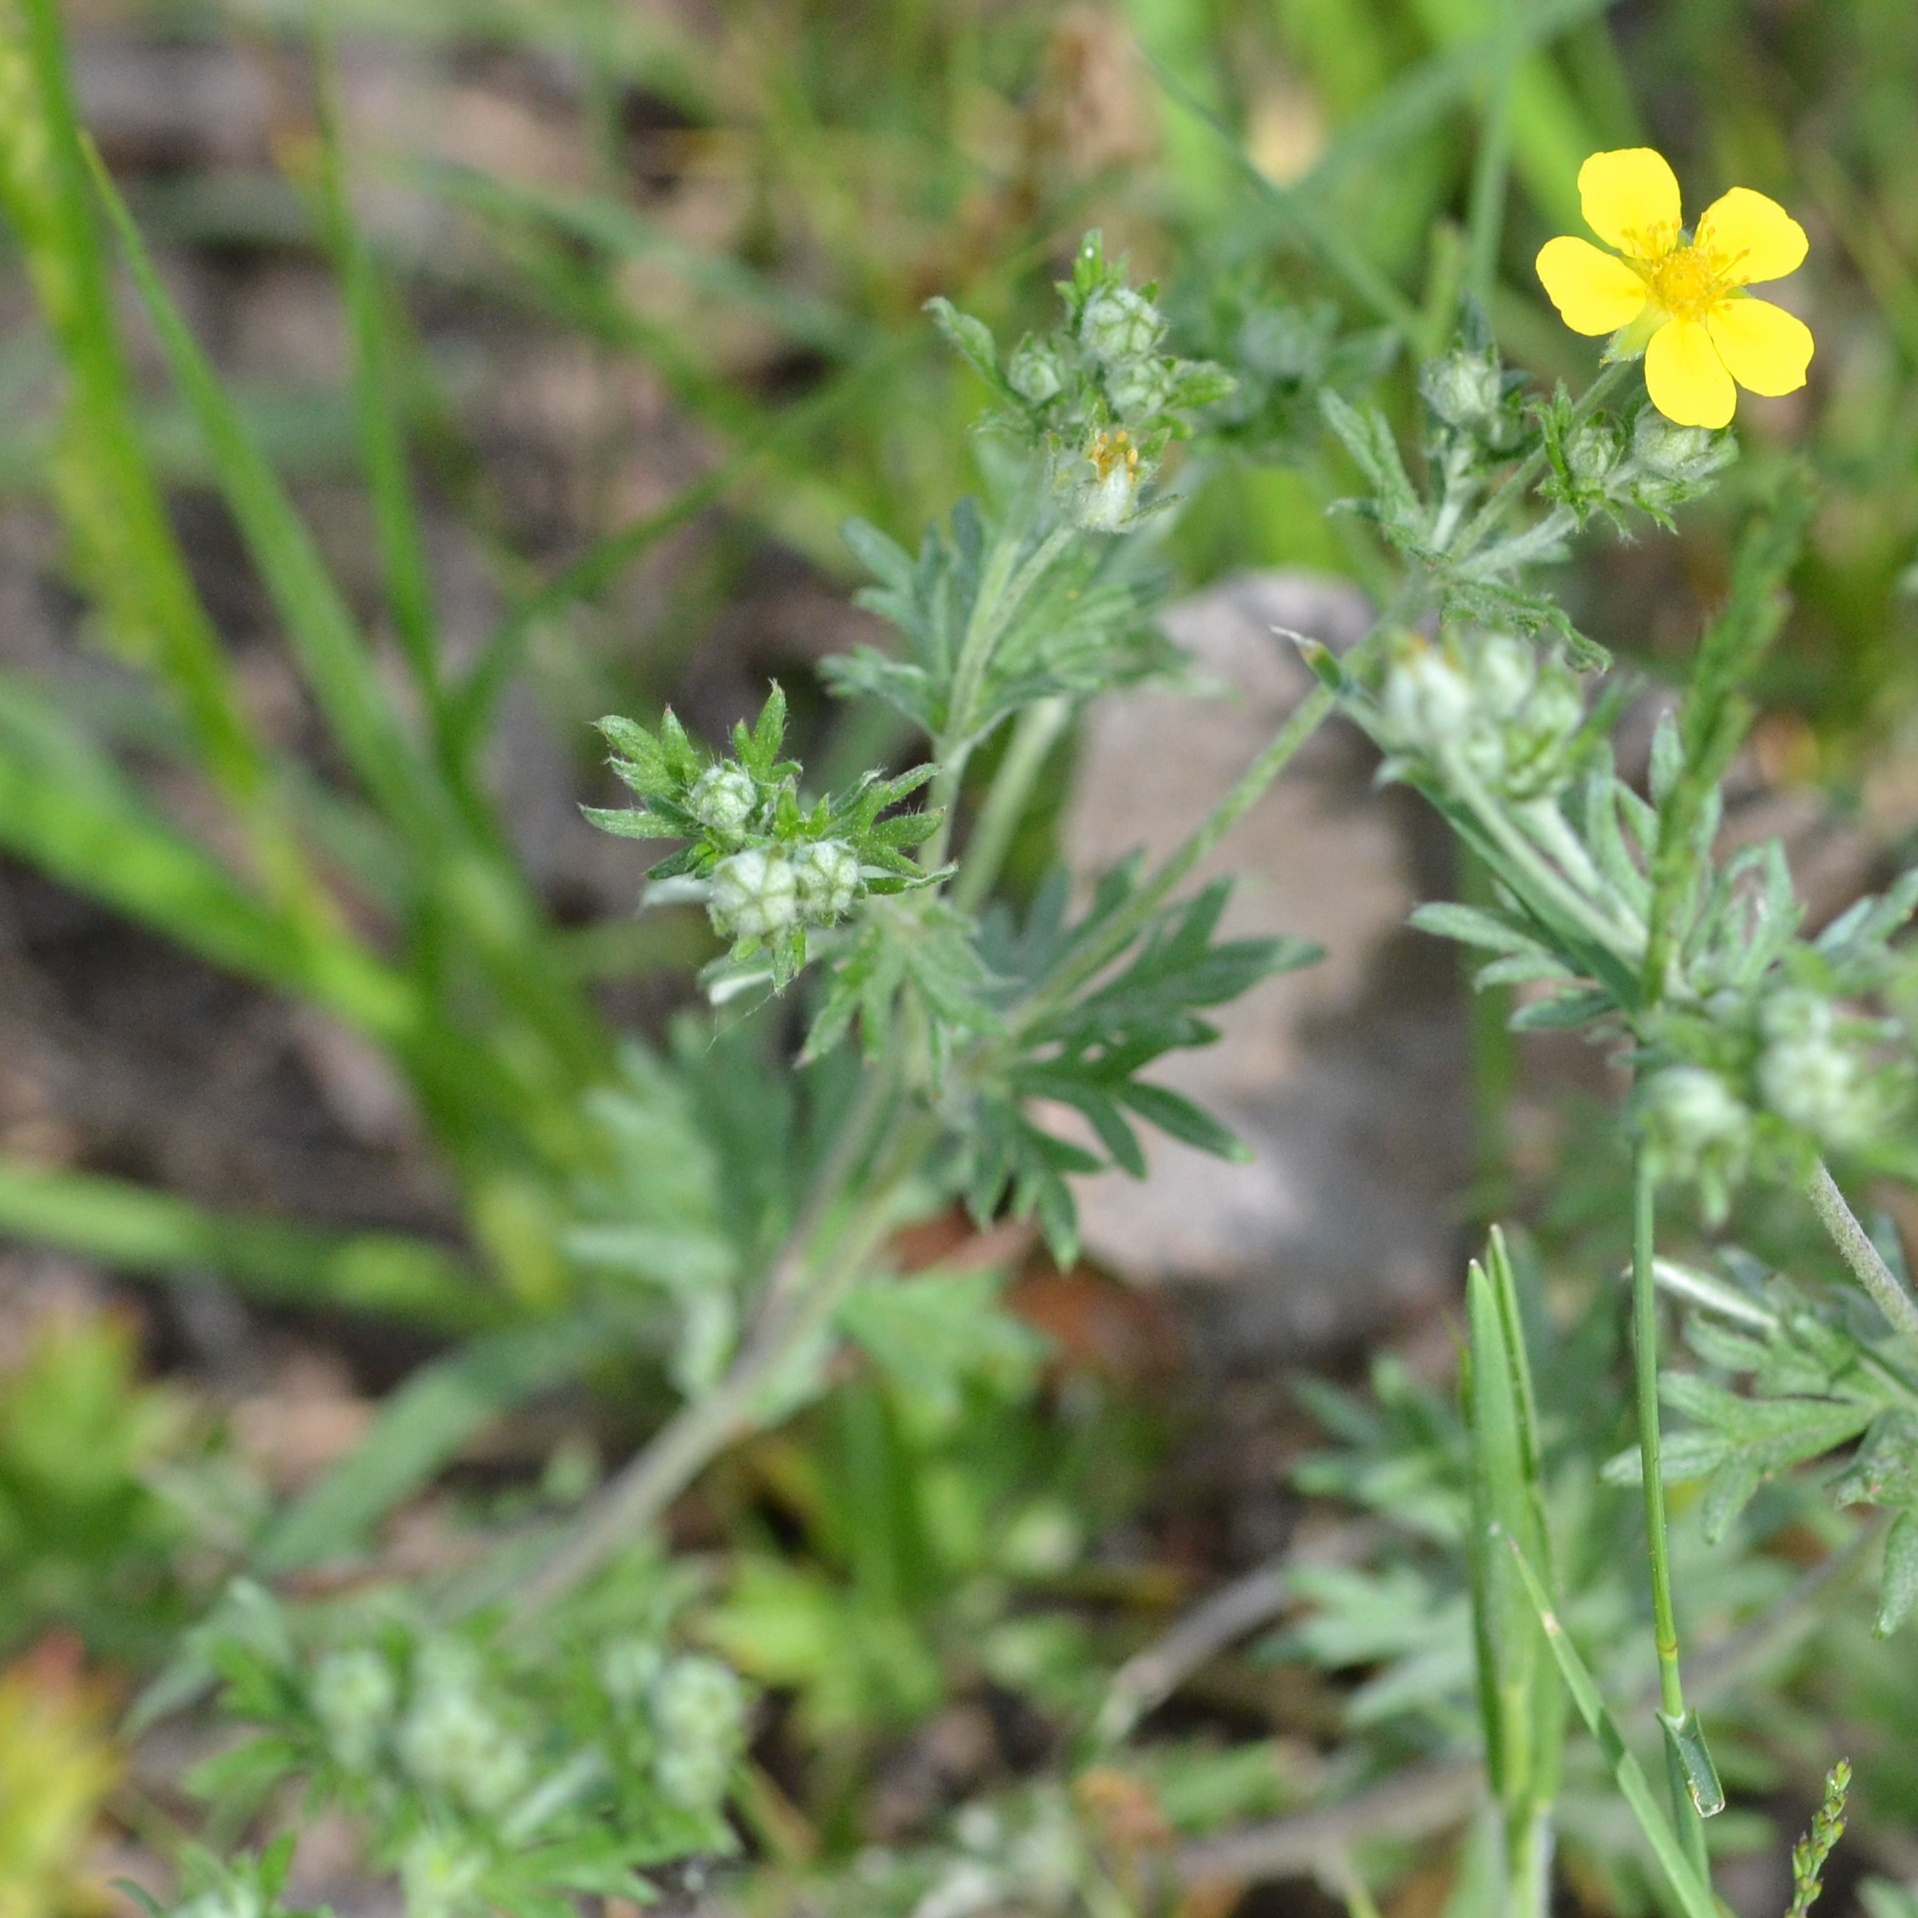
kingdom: Plantae
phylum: Tracheophyta
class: Magnoliopsida
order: Rosales
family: Rosaceae
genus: Potentilla
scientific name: Potentilla argentea
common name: Hoary cinquefoil
